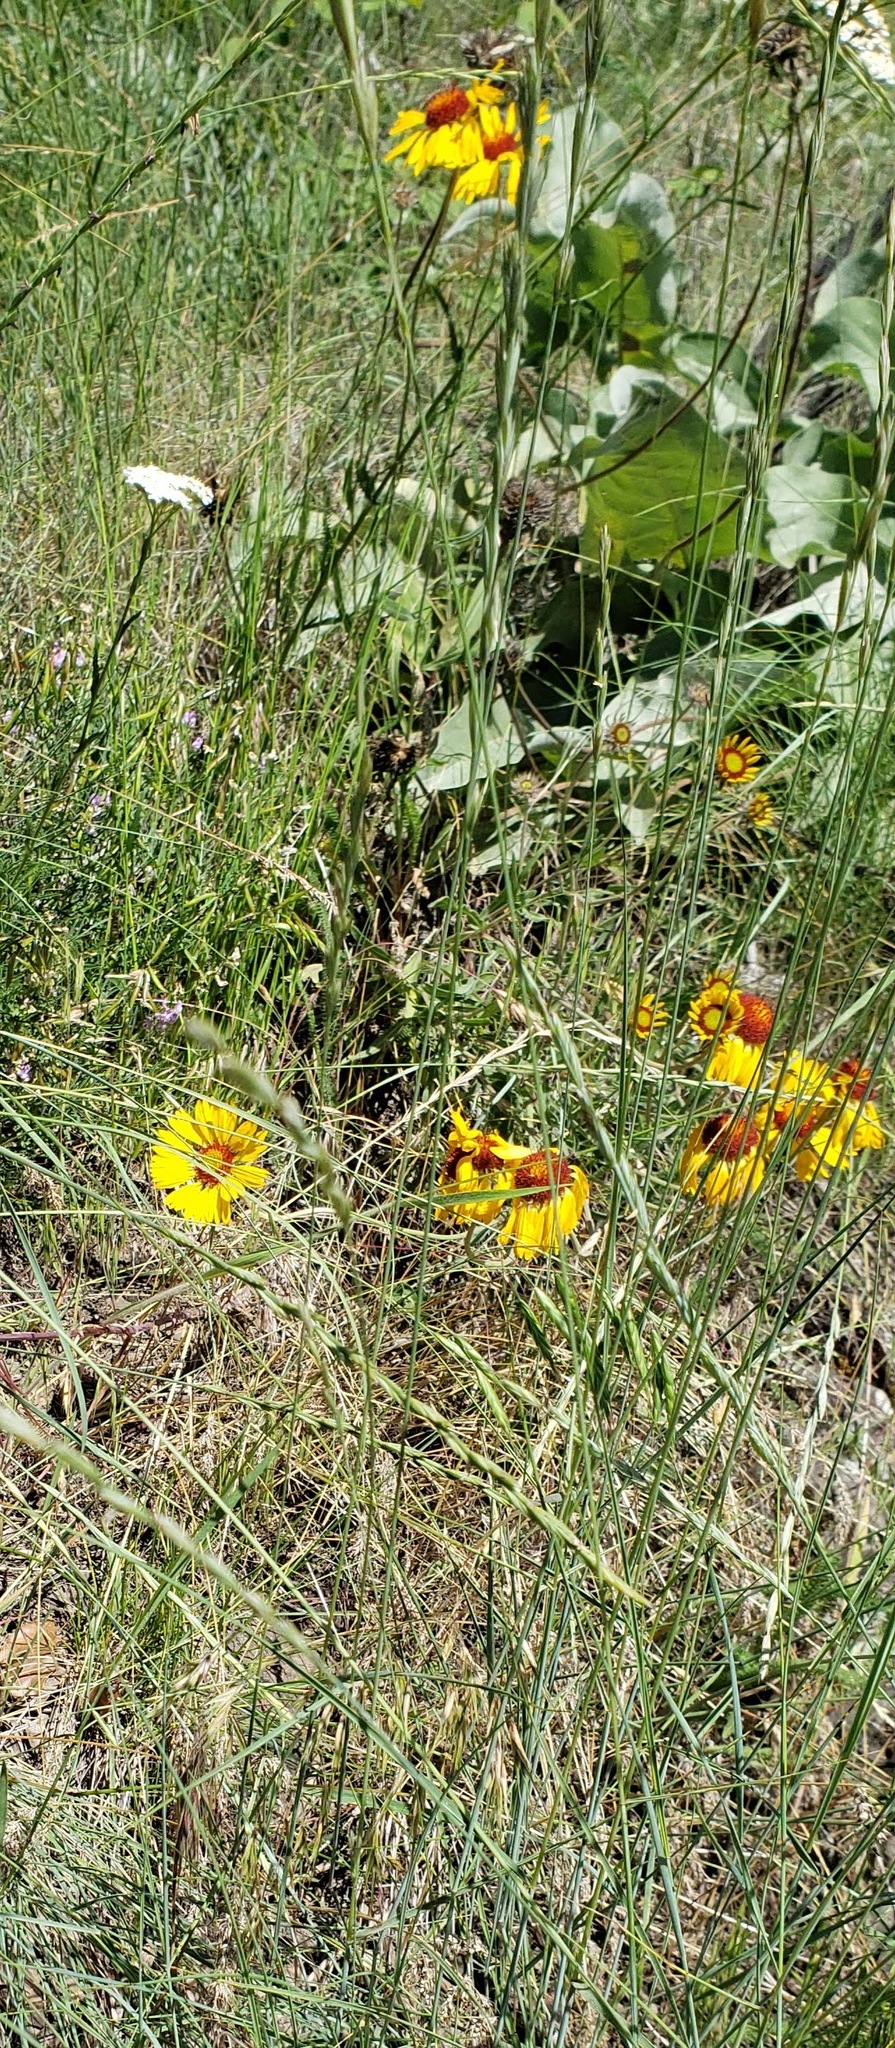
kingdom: Plantae
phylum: Tracheophyta
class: Magnoliopsida
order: Asterales
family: Asteraceae
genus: Gaillardia
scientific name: Gaillardia aristata
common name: Blanket-flower
